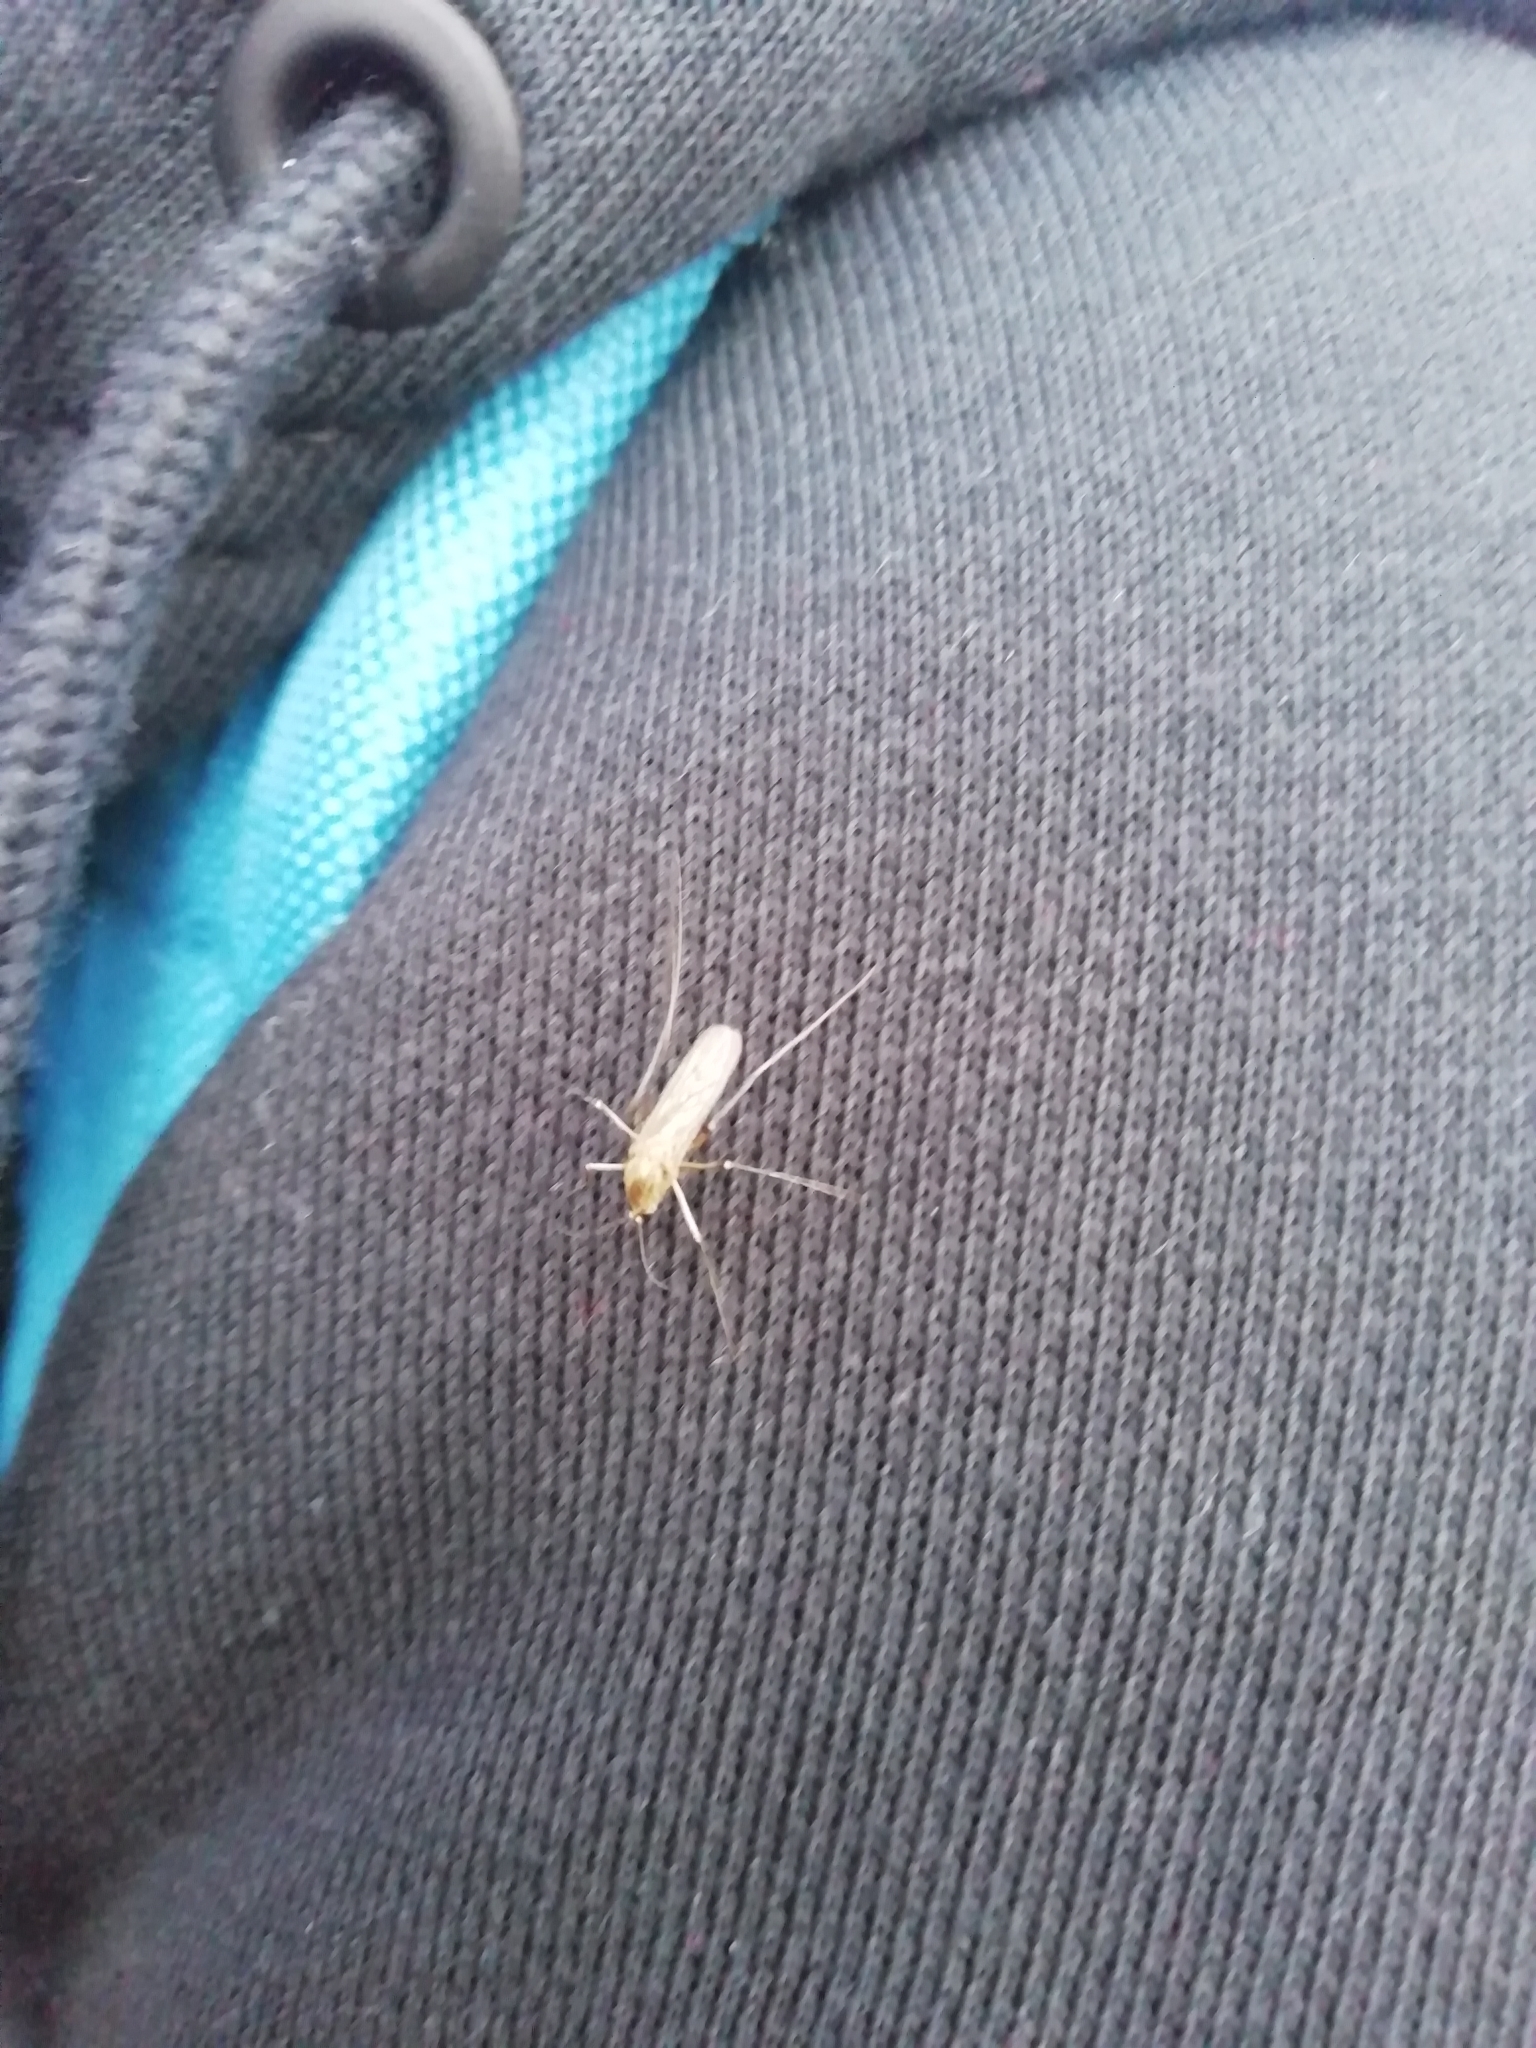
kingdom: Animalia
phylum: Arthropoda
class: Insecta
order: Diptera
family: Culicidae
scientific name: Culicidae
